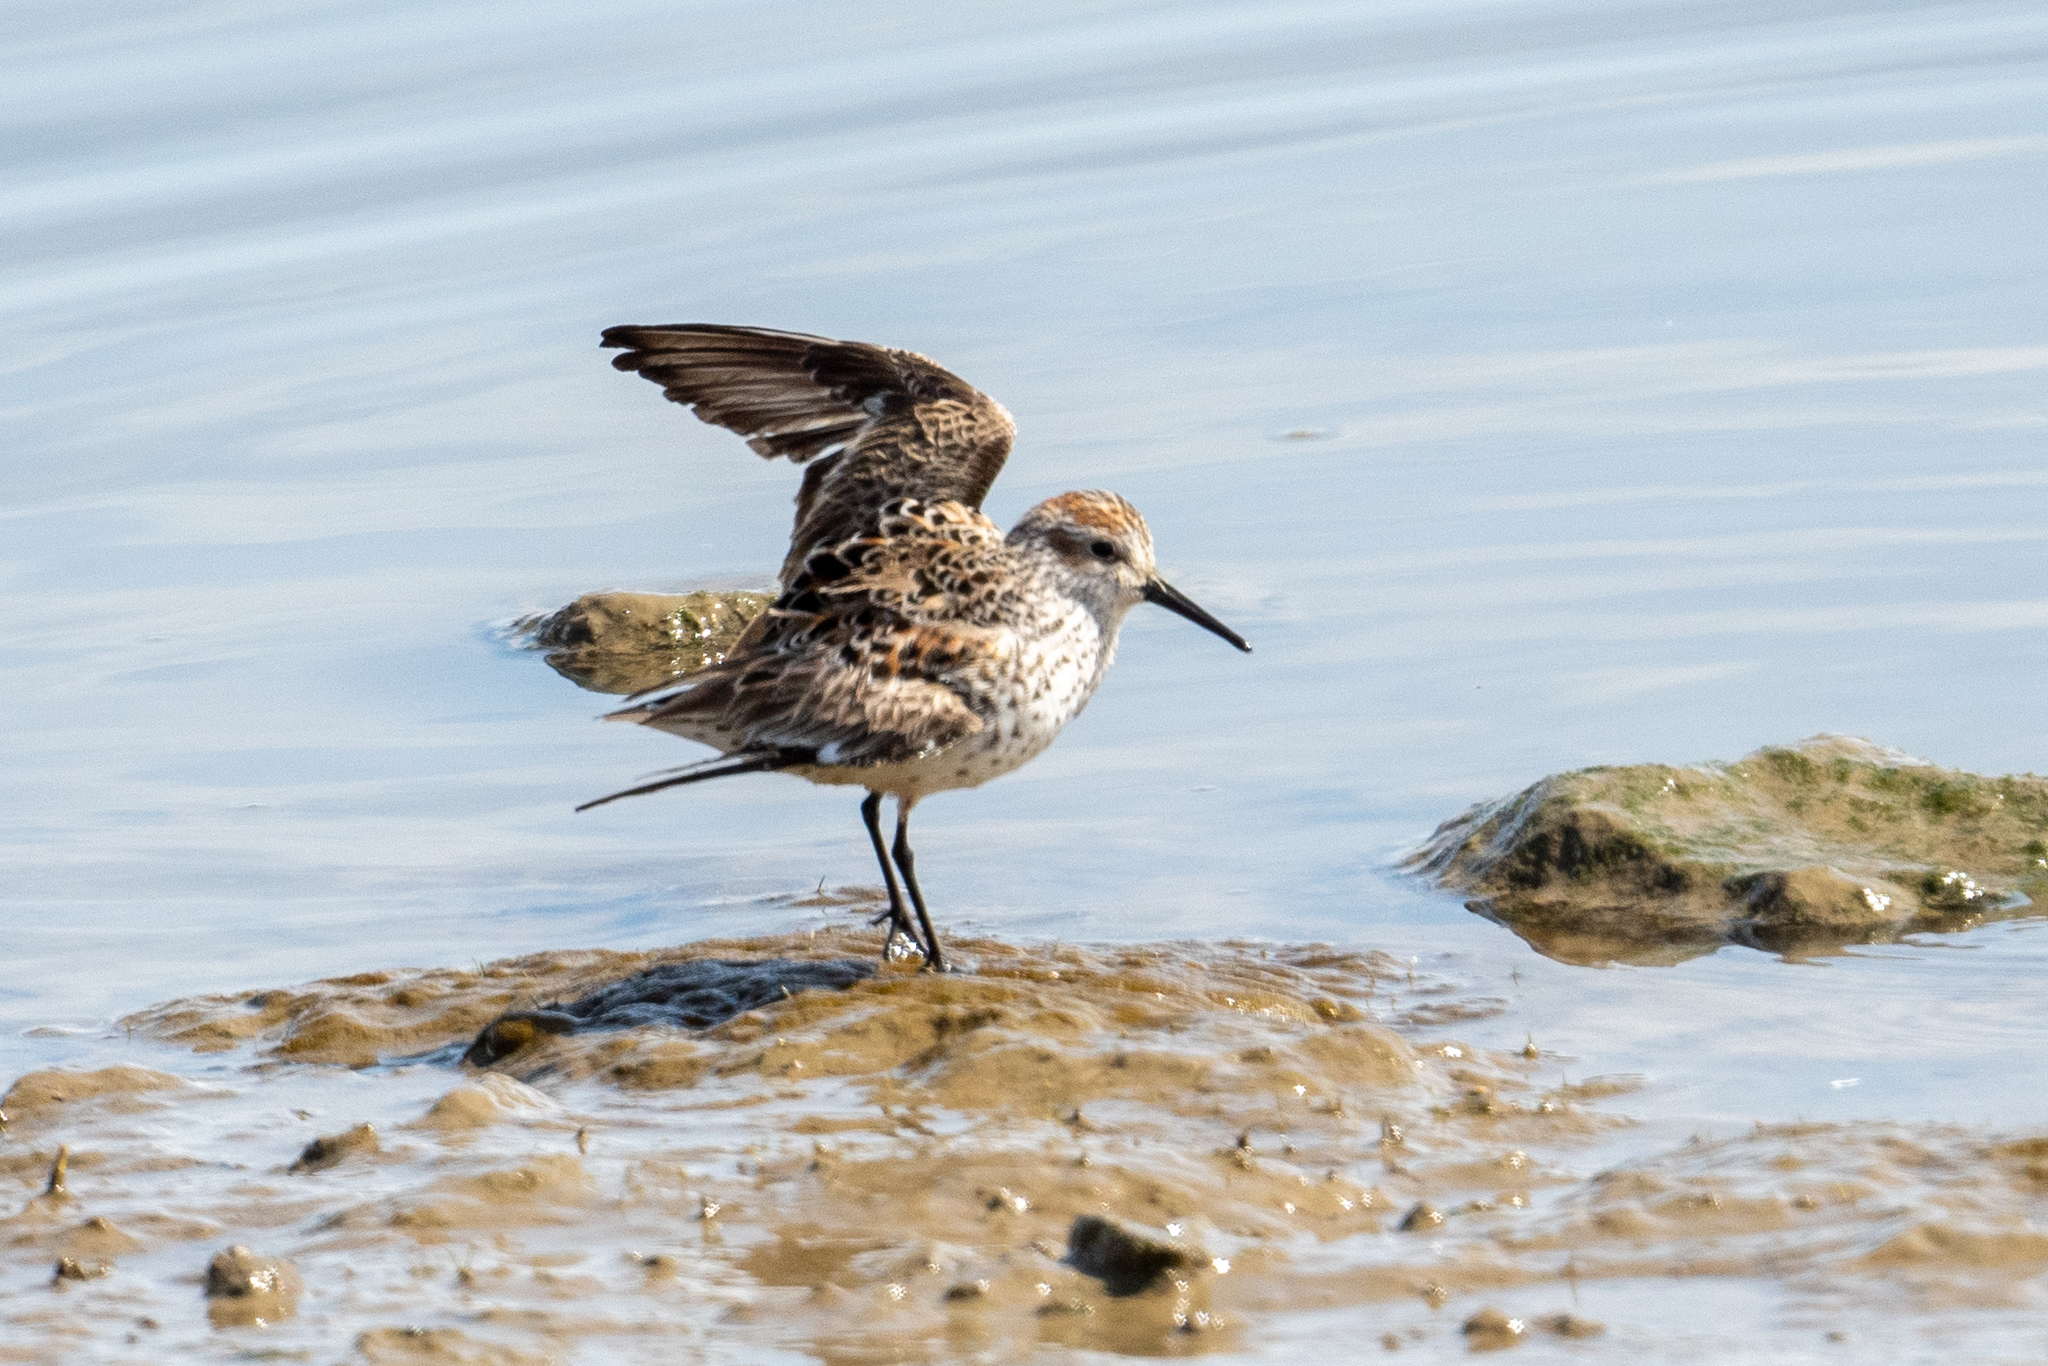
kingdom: Animalia
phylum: Chordata
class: Aves
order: Charadriiformes
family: Scolopacidae
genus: Calidris
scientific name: Calidris mauri
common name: Western sandpiper
